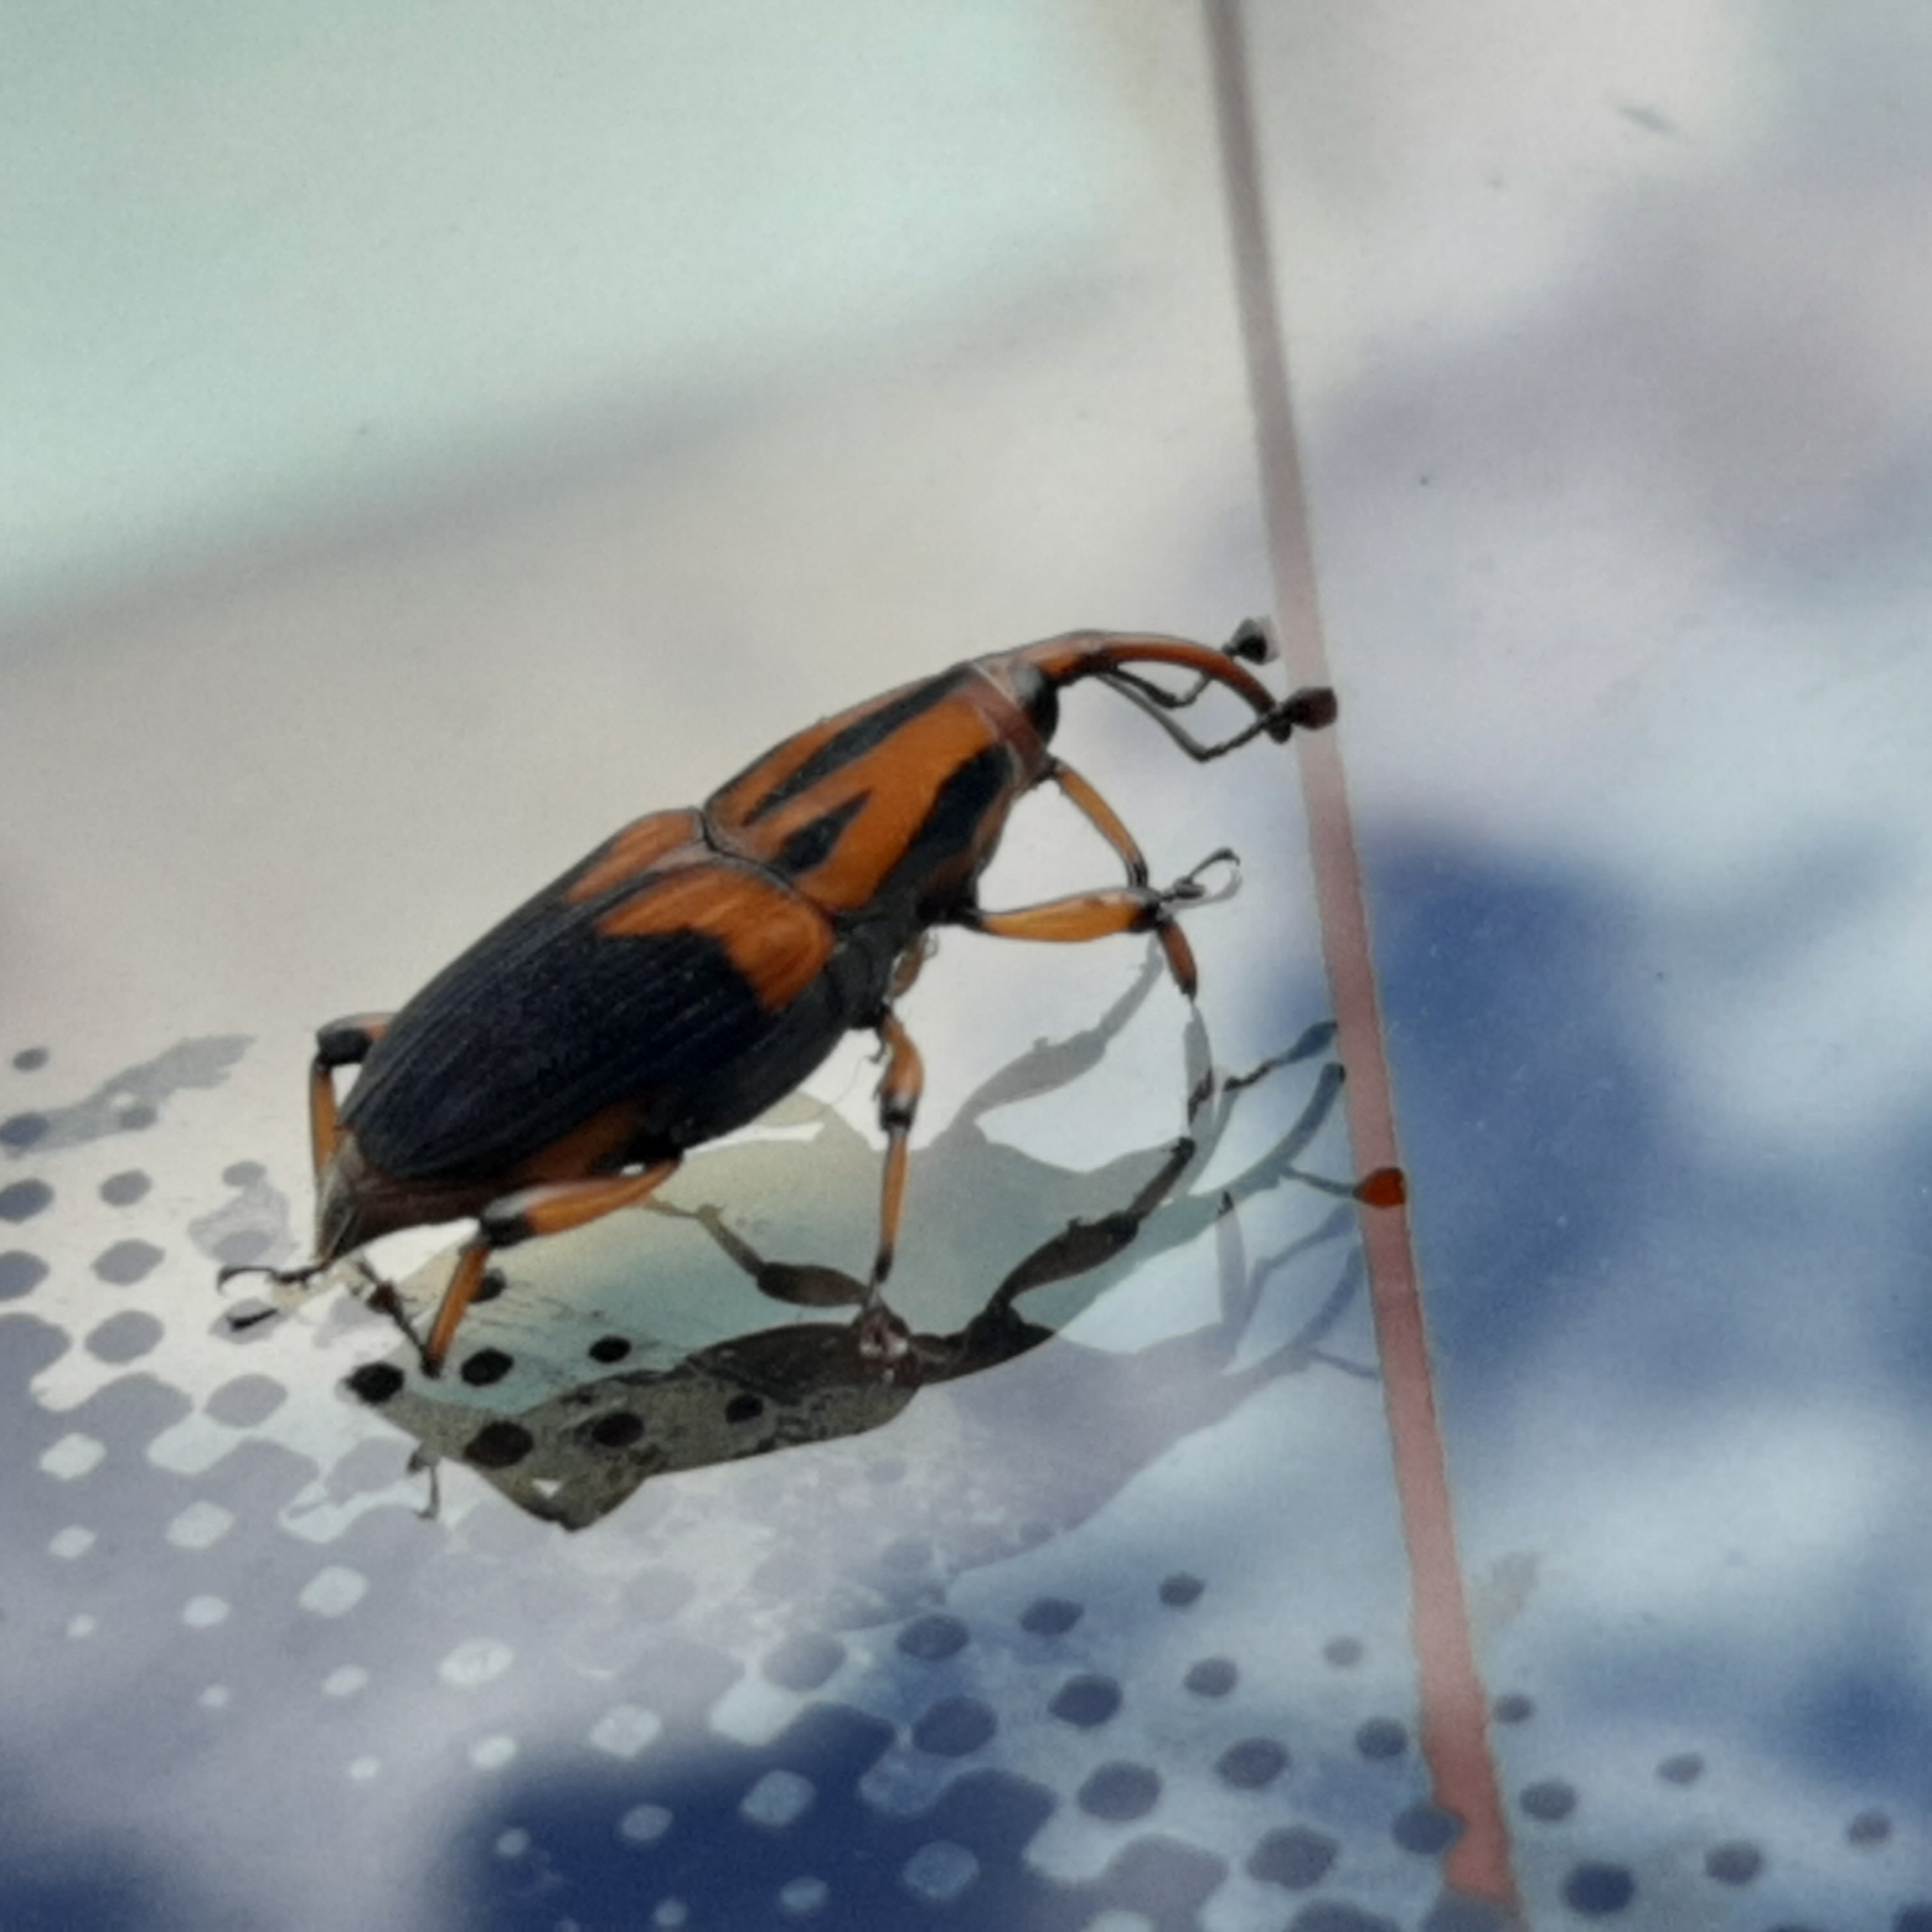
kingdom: Animalia
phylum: Arthropoda
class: Insecta
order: Coleoptera
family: Dryophthoridae
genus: Metamasius
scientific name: Metamasius sericeus
